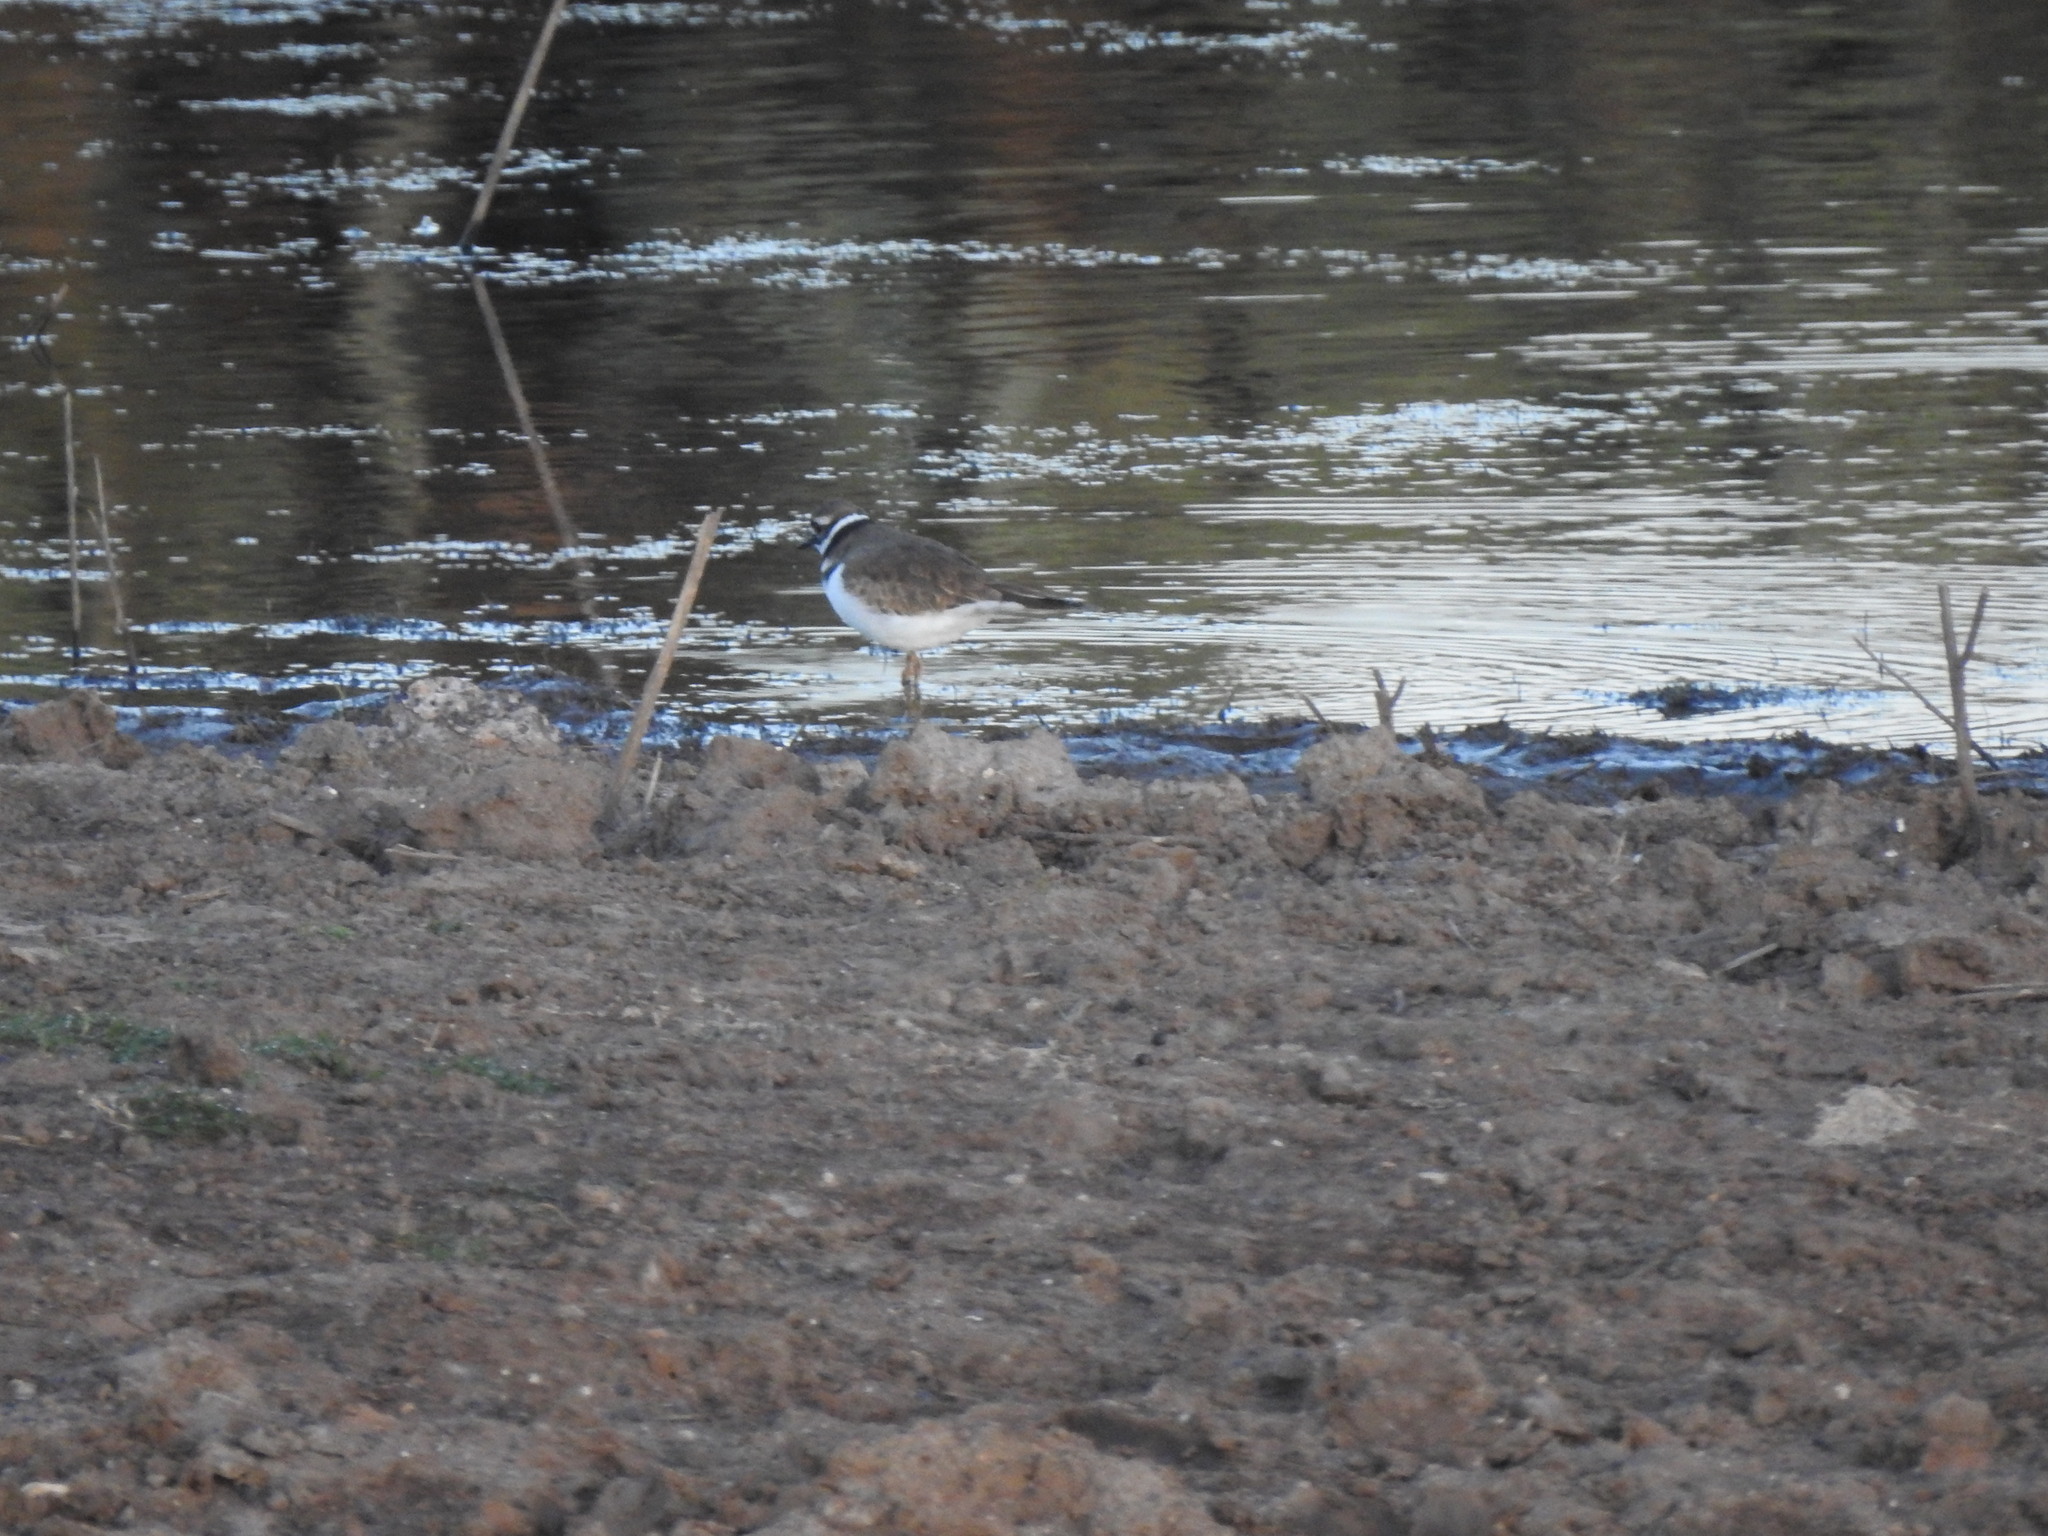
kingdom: Animalia
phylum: Chordata
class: Aves
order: Charadriiformes
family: Charadriidae
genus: Charadrius
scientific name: Charadrius vociferus
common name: Killdeer
